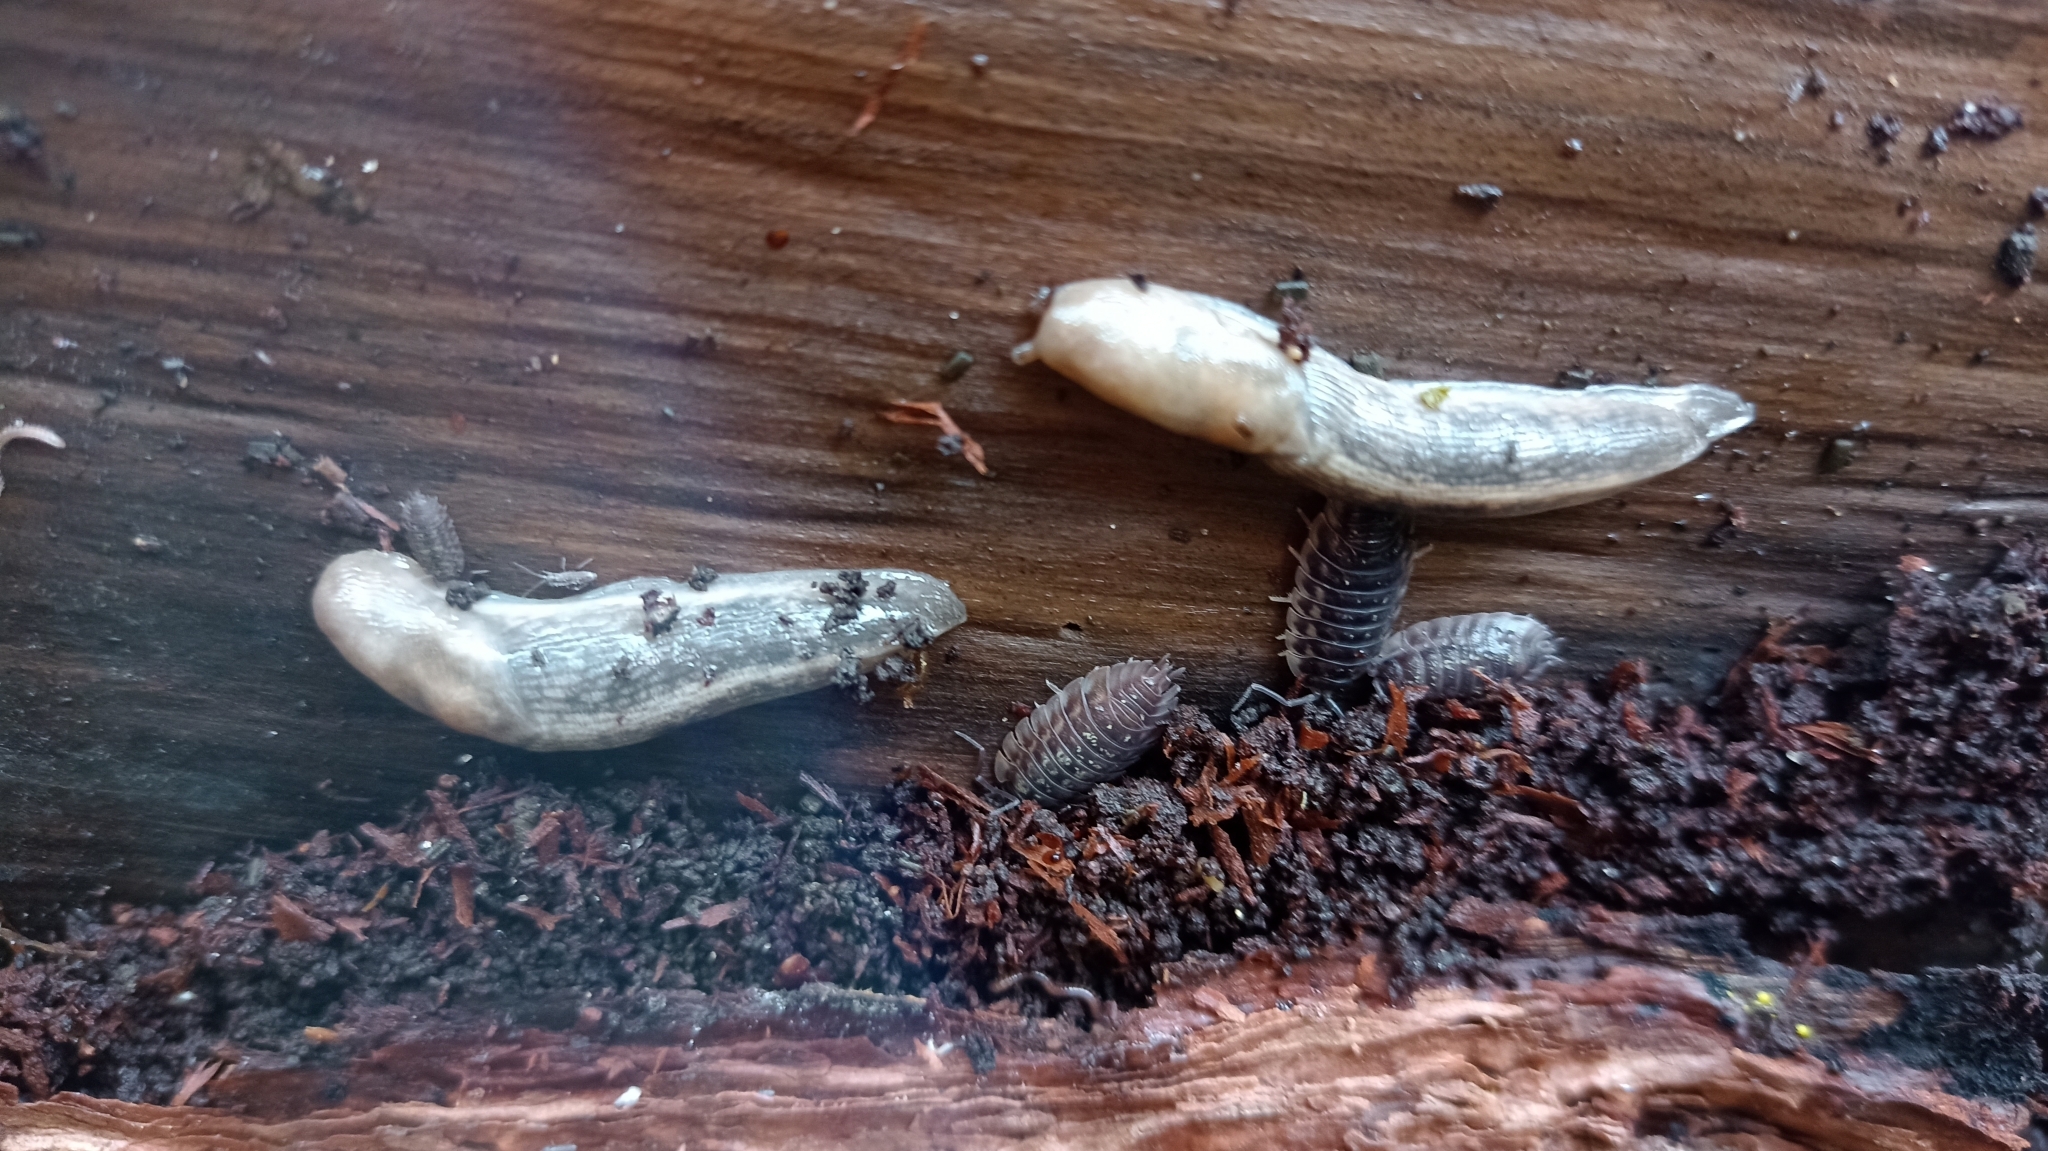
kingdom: Animalia
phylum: Mollusca
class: Gastropoda
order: Stylommatophora
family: Limacidae
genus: Lehmannia
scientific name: Lehmannia marginata
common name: Tree slug
